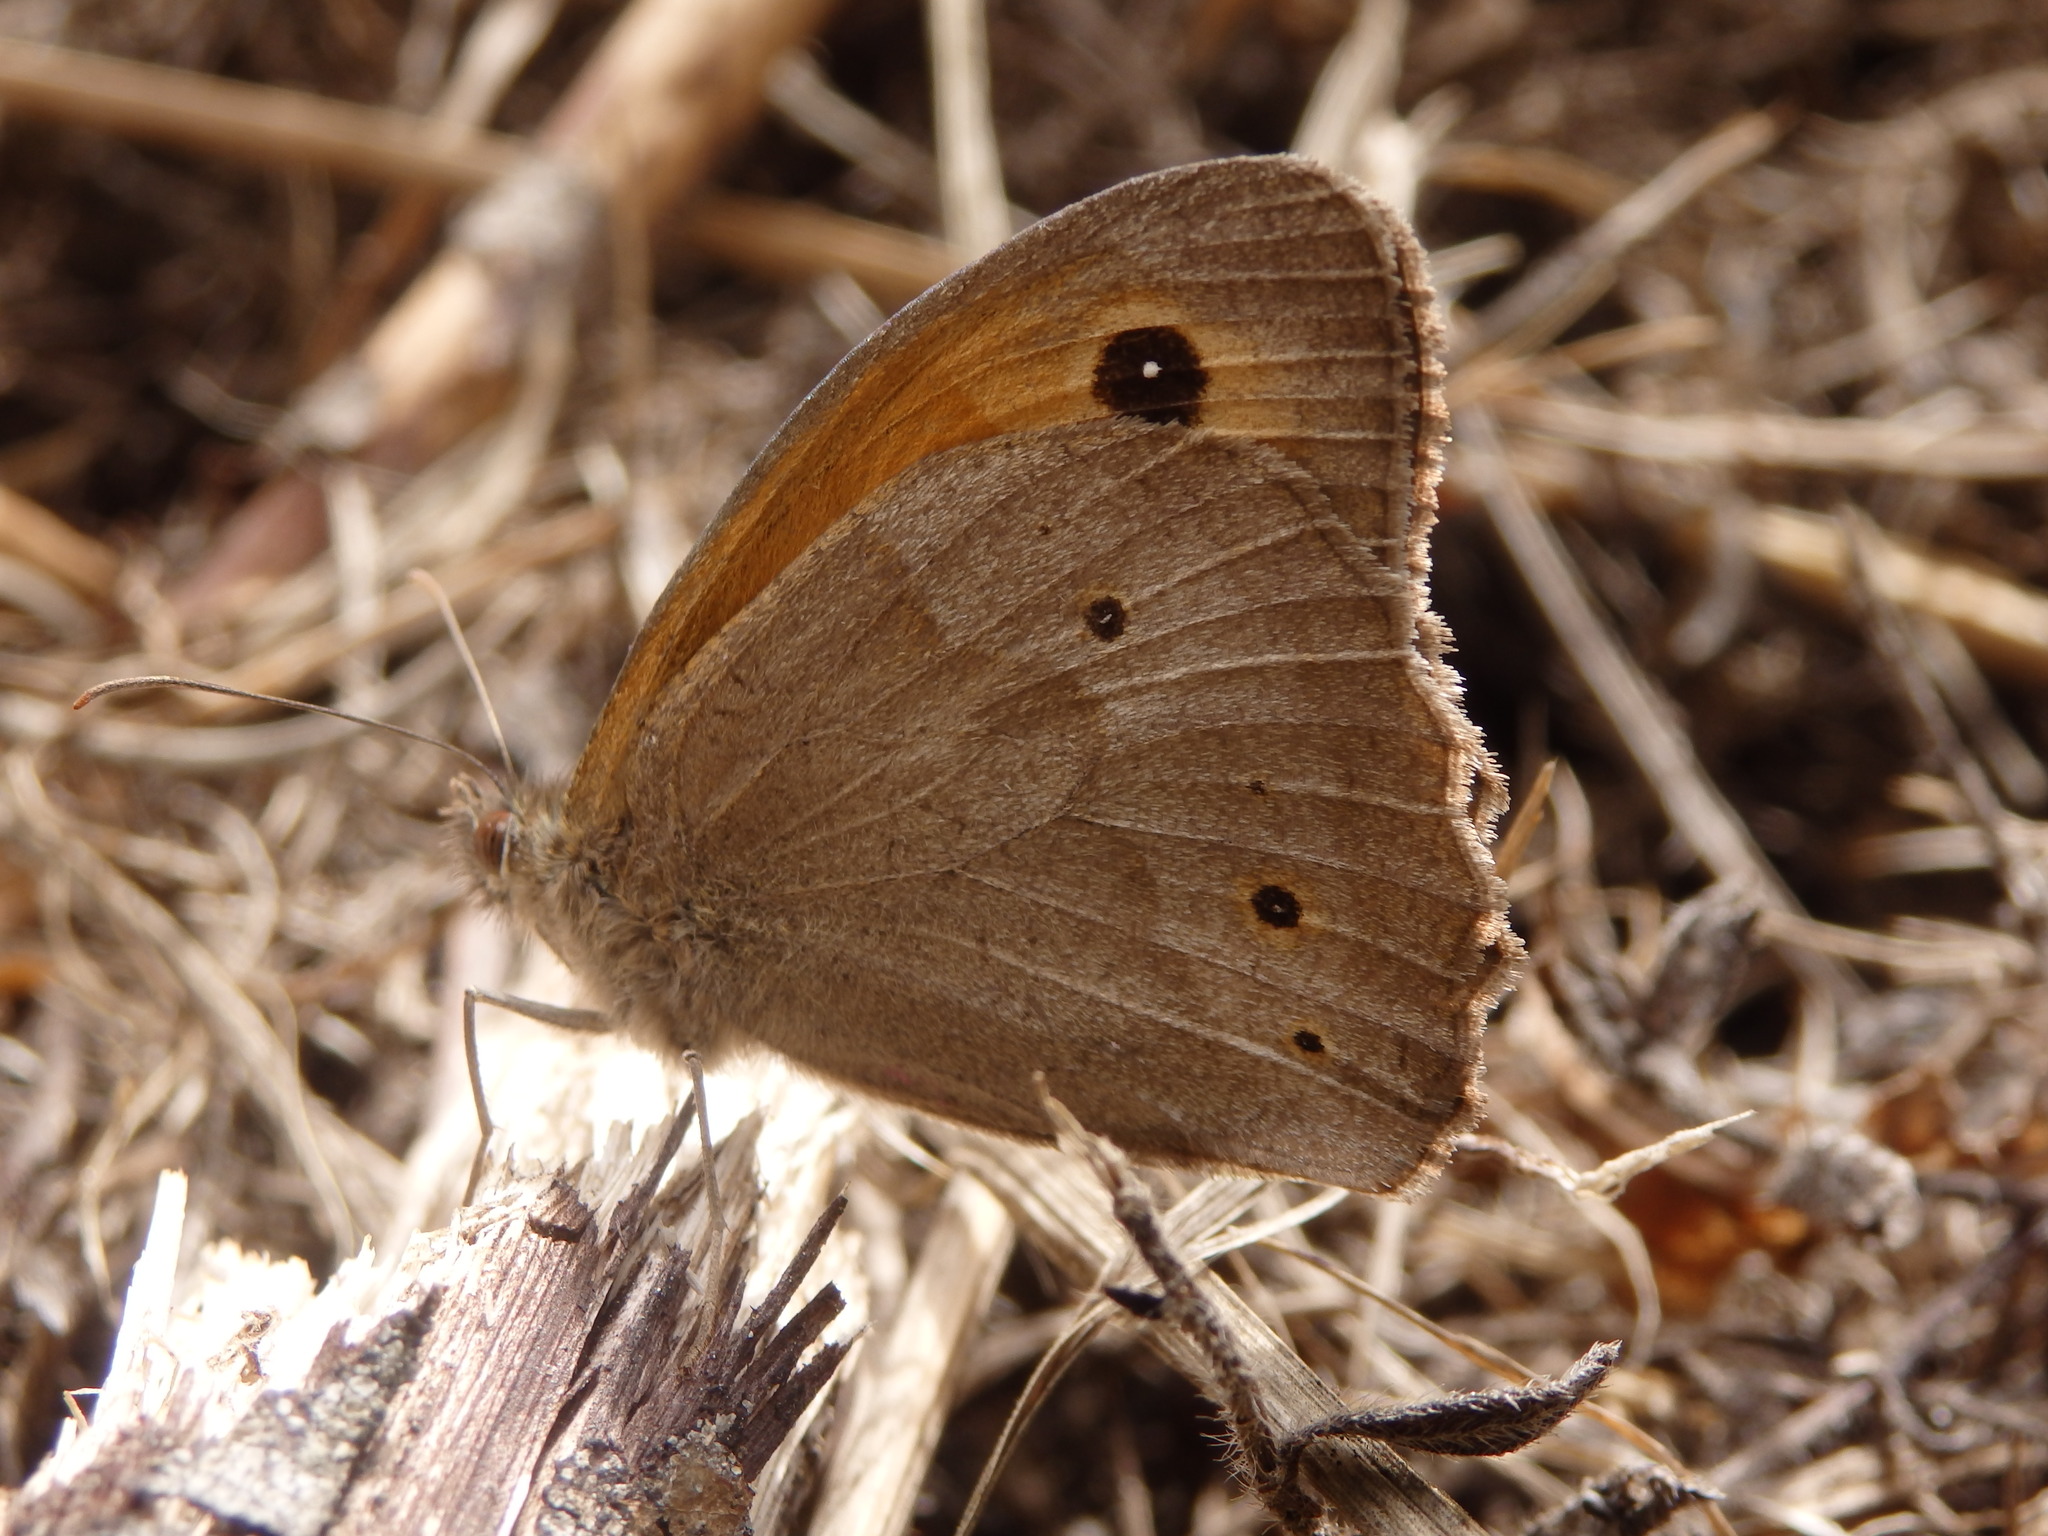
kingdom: Animalia
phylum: Arthropoda
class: Insecta
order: Lepidoptera
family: Nymphalidae
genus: Maniola
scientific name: Maniola jurtina
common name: Meadow brown
